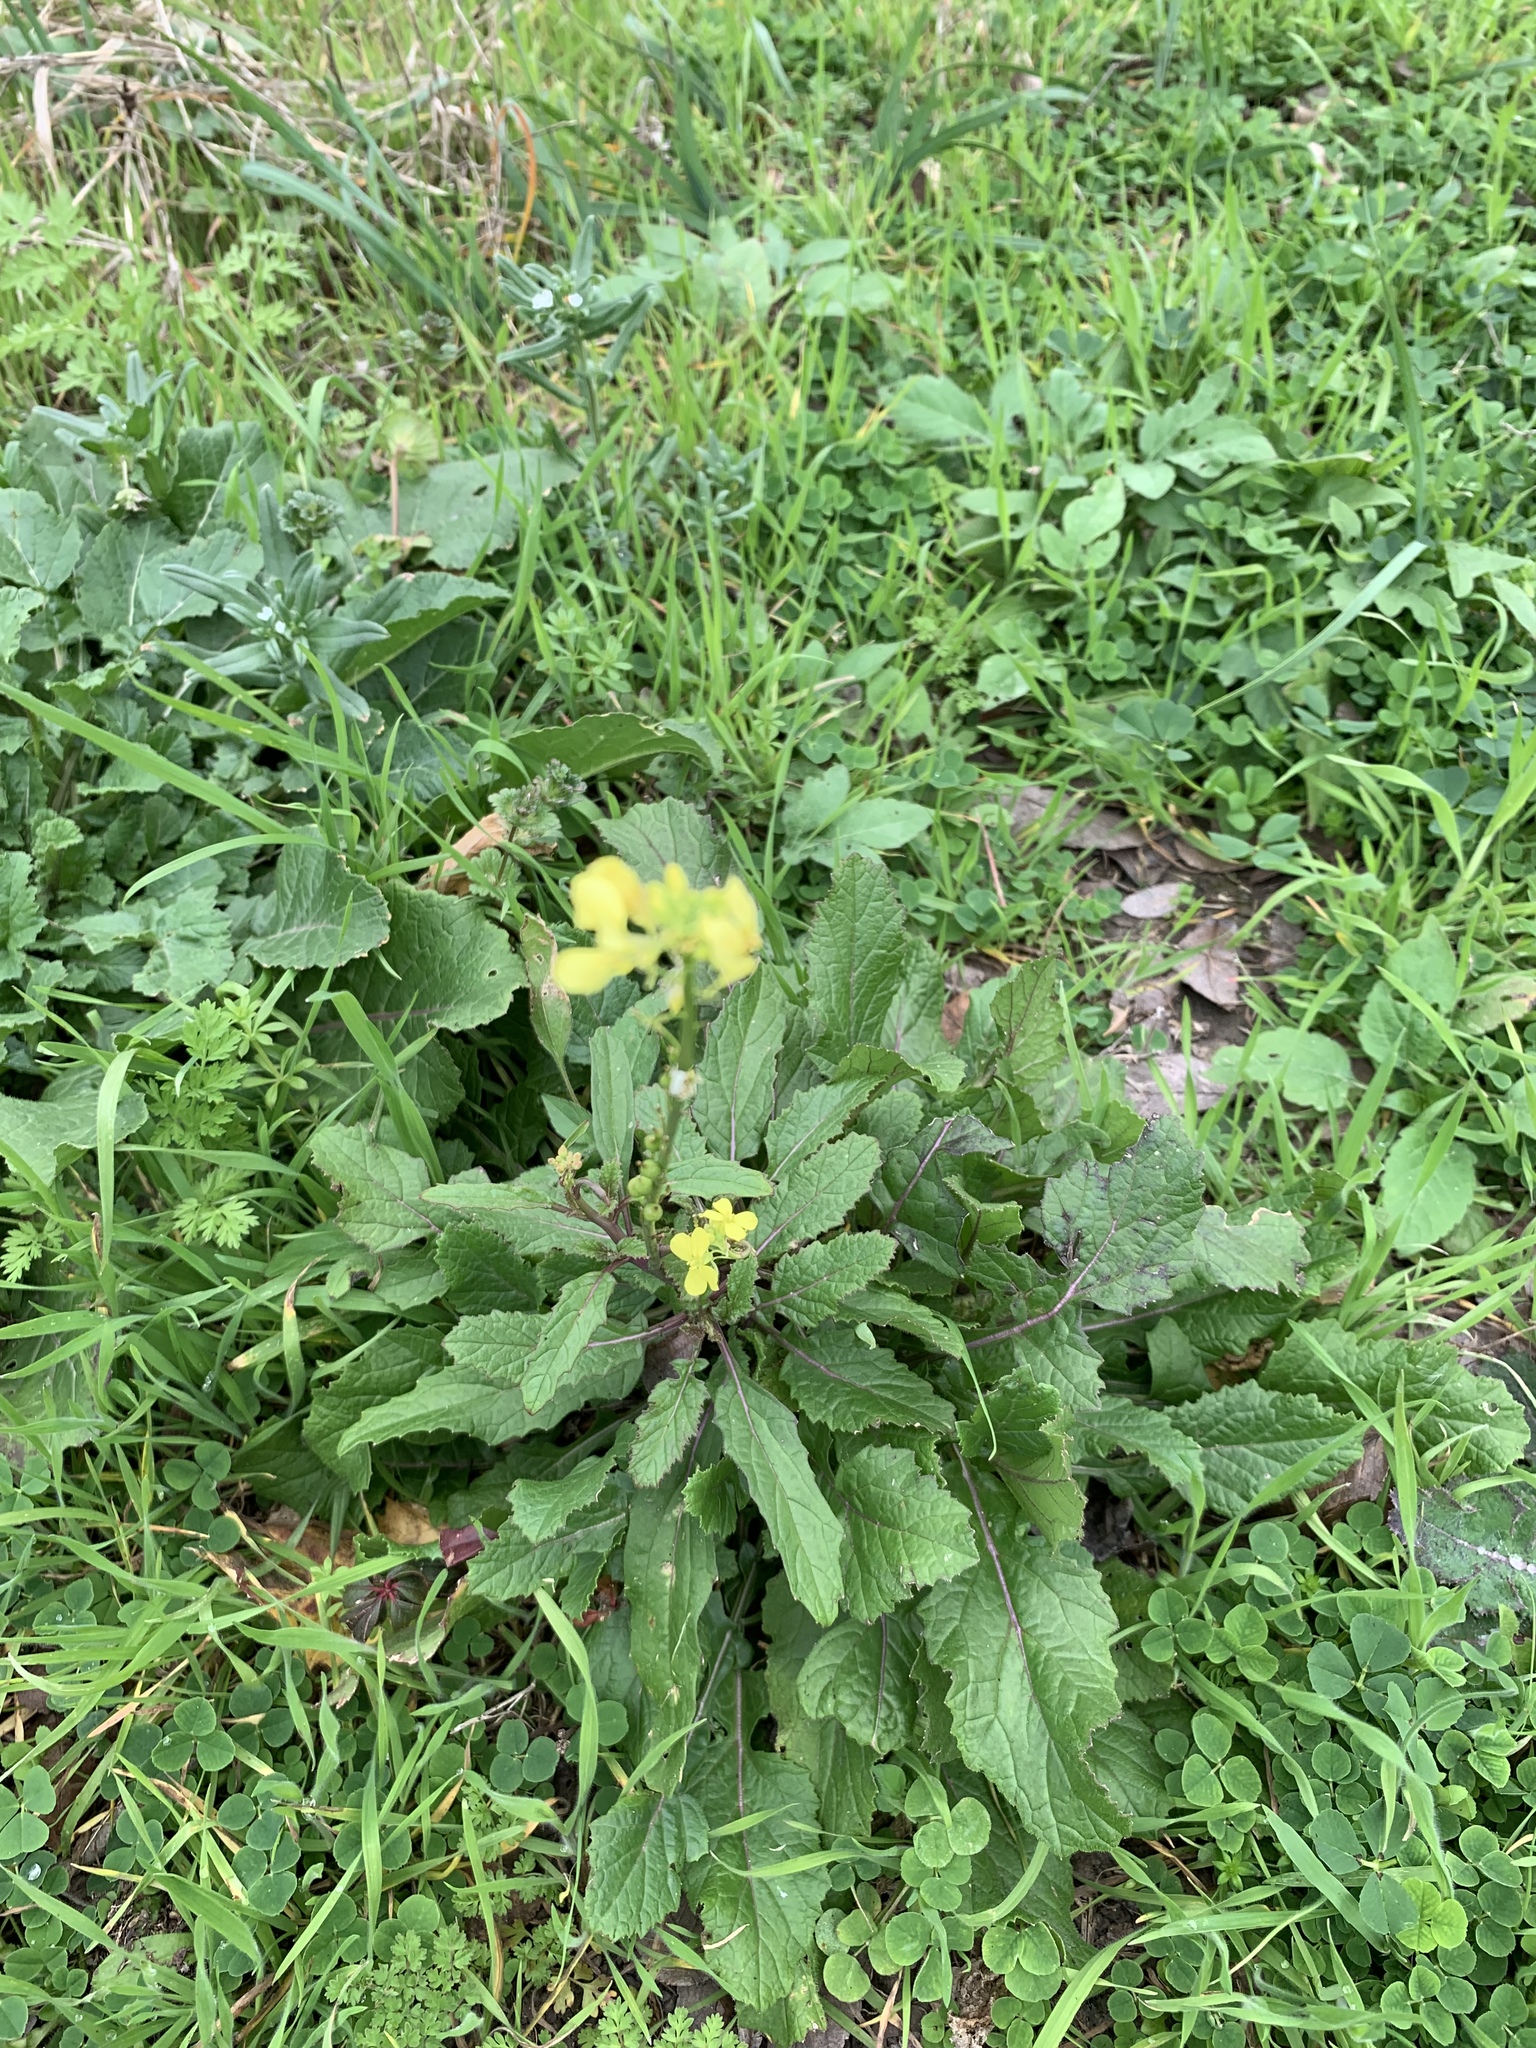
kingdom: Plantae
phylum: Tracheophyta
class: Magnoliopsida
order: Brassicales
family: Brassicaceae
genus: Rapistrum
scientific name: Rapistrum rugosum
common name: Annual bastardcabbage
